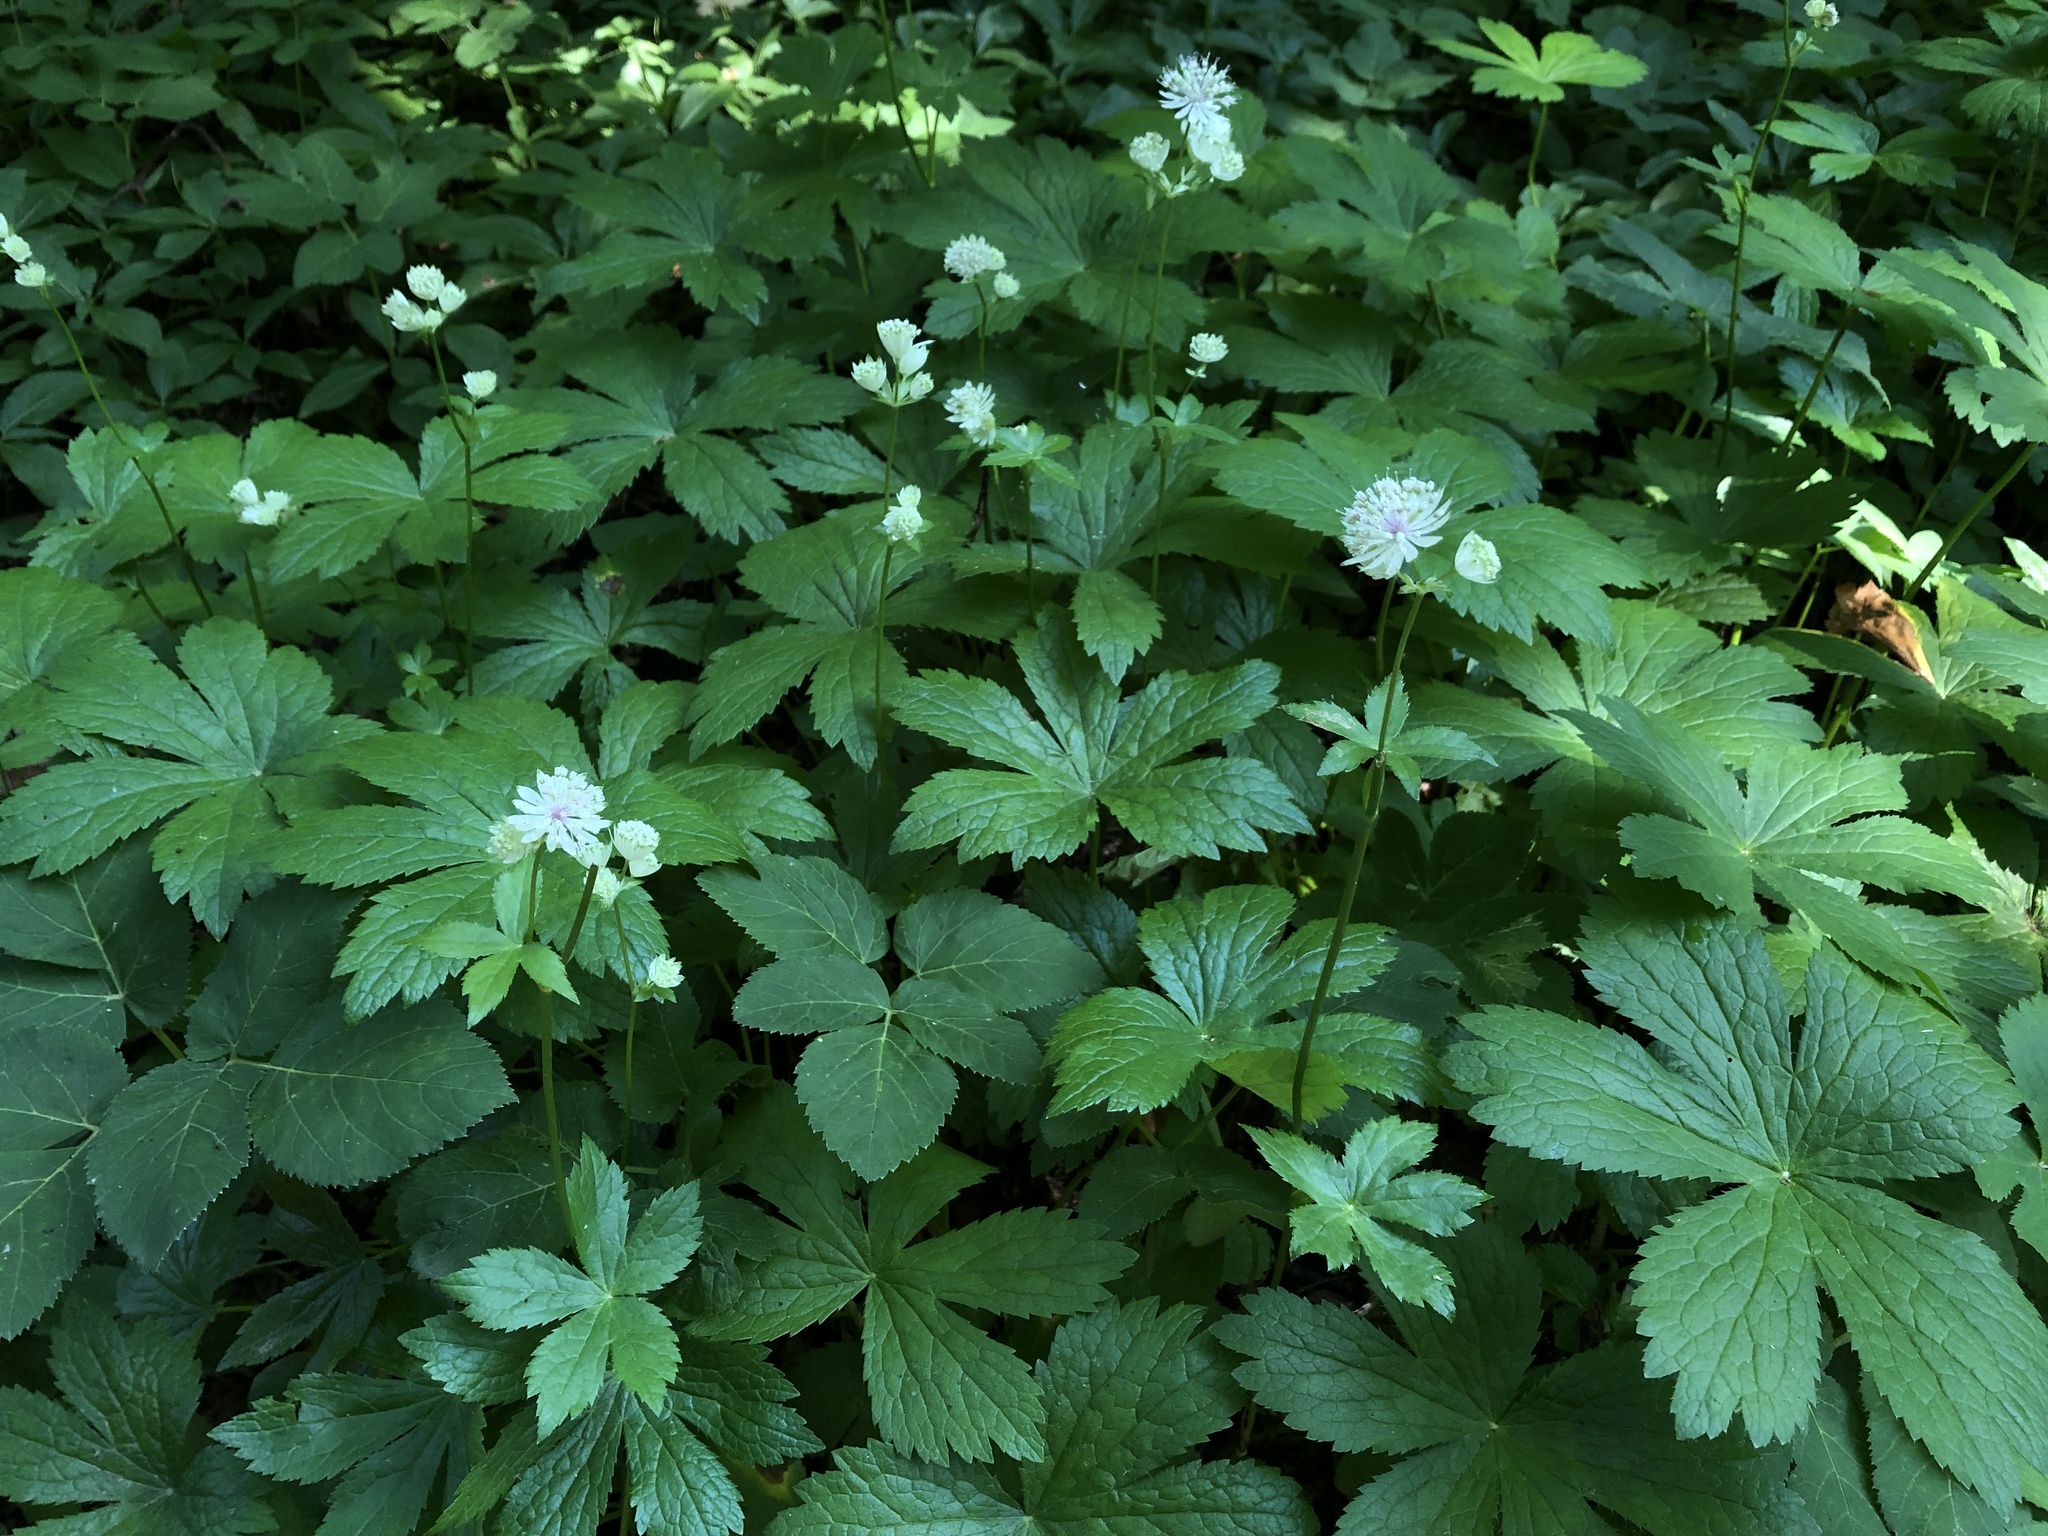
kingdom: Plantae
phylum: Tracheophyta
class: Magnoliopsida
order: Apiales
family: Apiaceae
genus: Astrantia
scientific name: Astrantia major
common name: Greater masterwort
